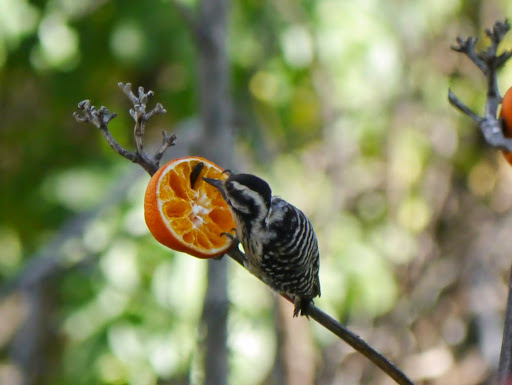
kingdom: Animalia
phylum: Chordata
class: Aves
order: Piciformes
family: Picidae
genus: Dryobates
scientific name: Dryobates scalaris
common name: Ladder-backed woodpecker
